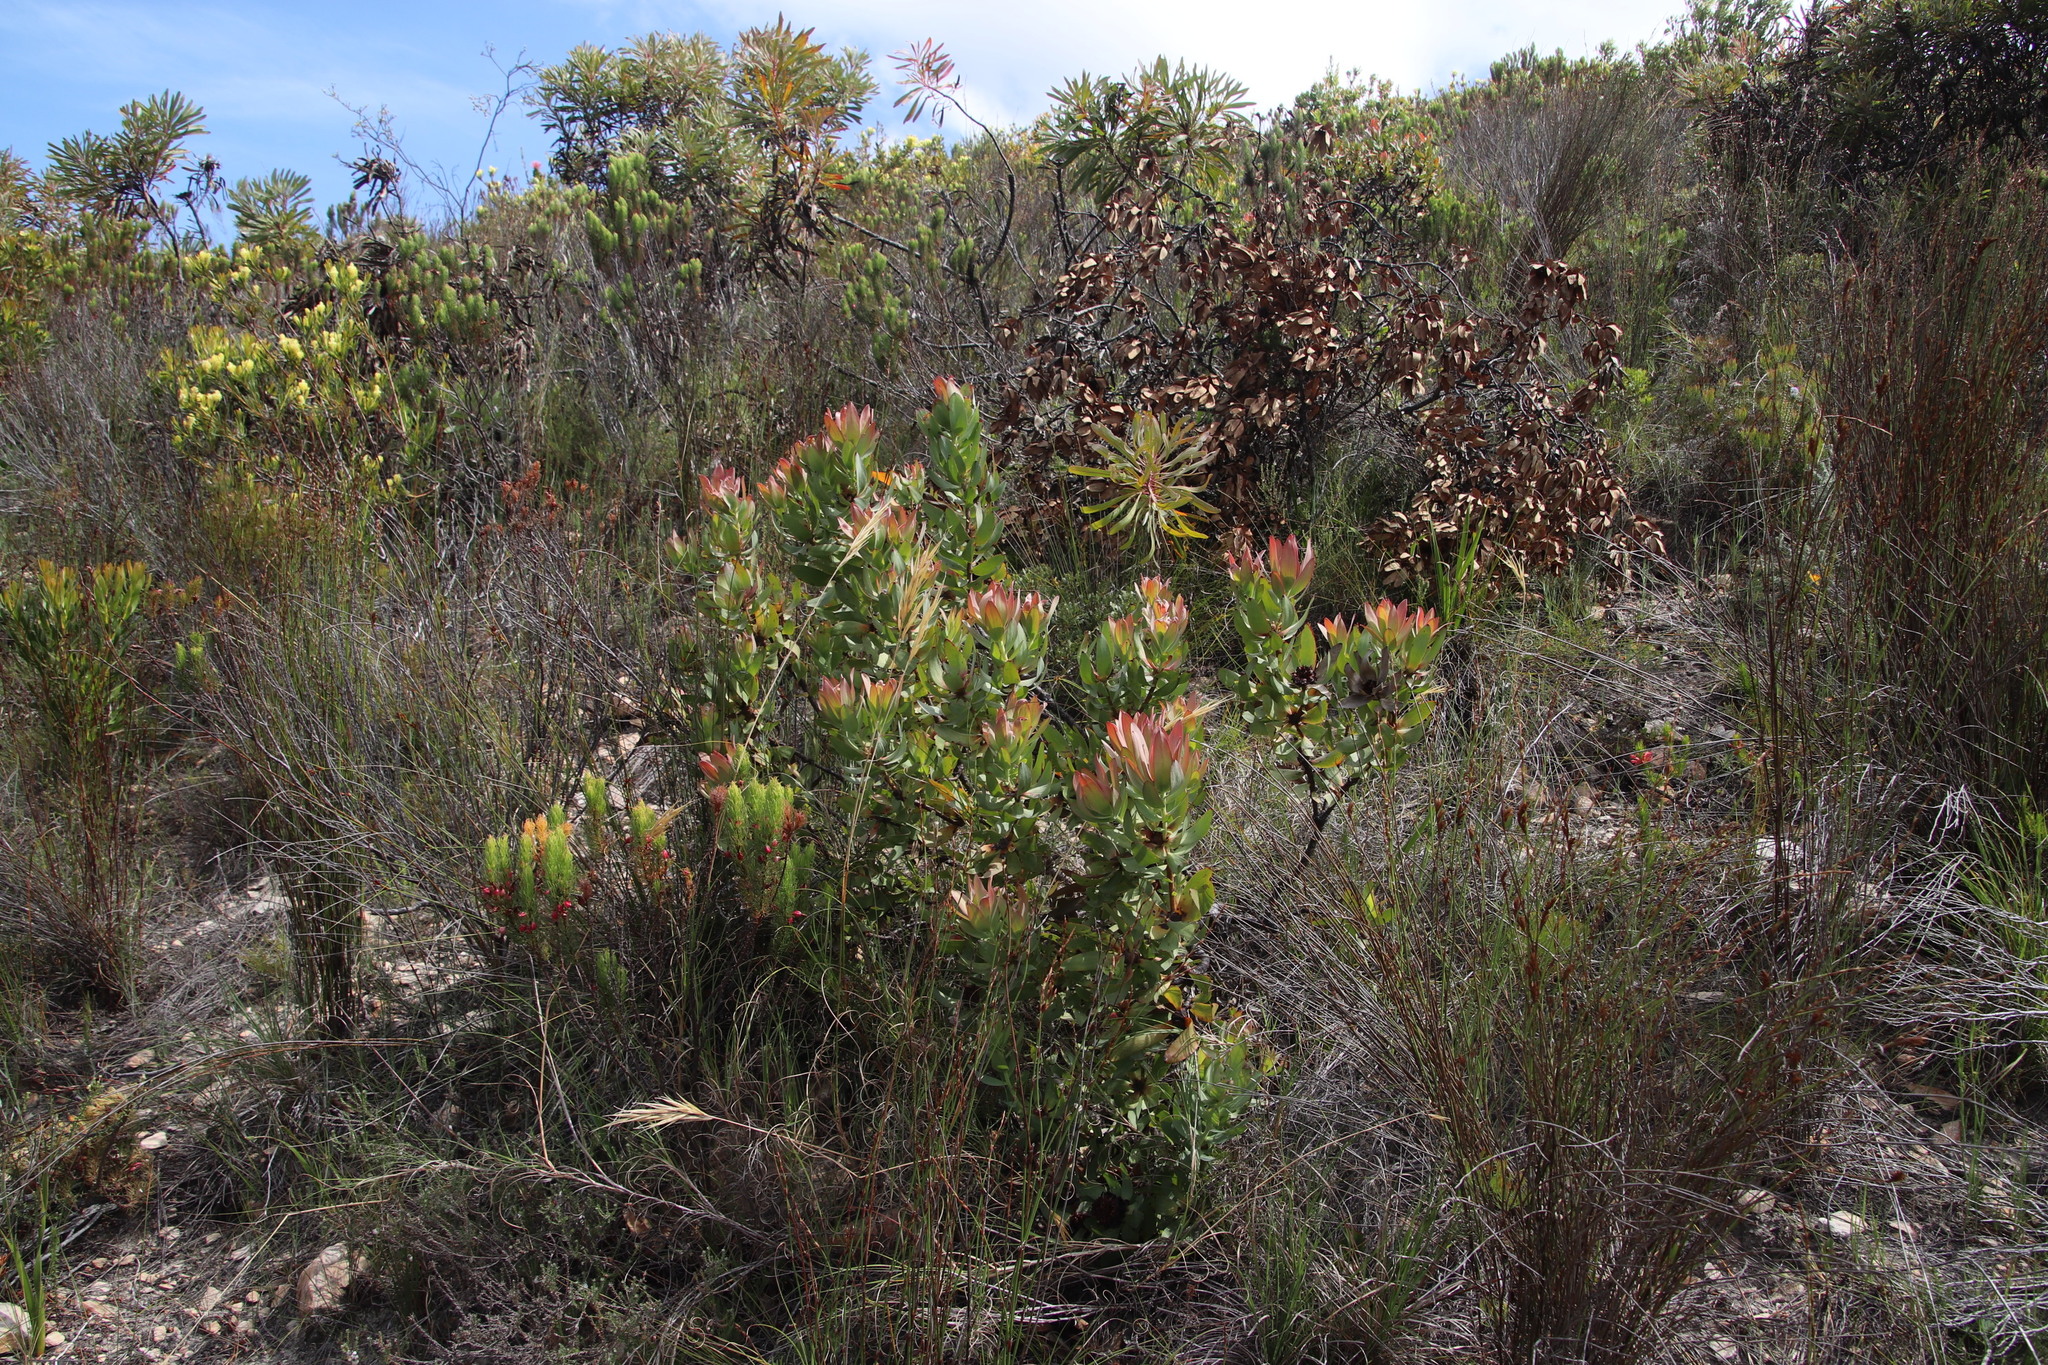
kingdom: Plantae
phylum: Tracheophyta
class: Magnoliopsida
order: Proteales
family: Proteaceae
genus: Leucadendron
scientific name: Leucadendron tinctum
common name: Spicy conebush
